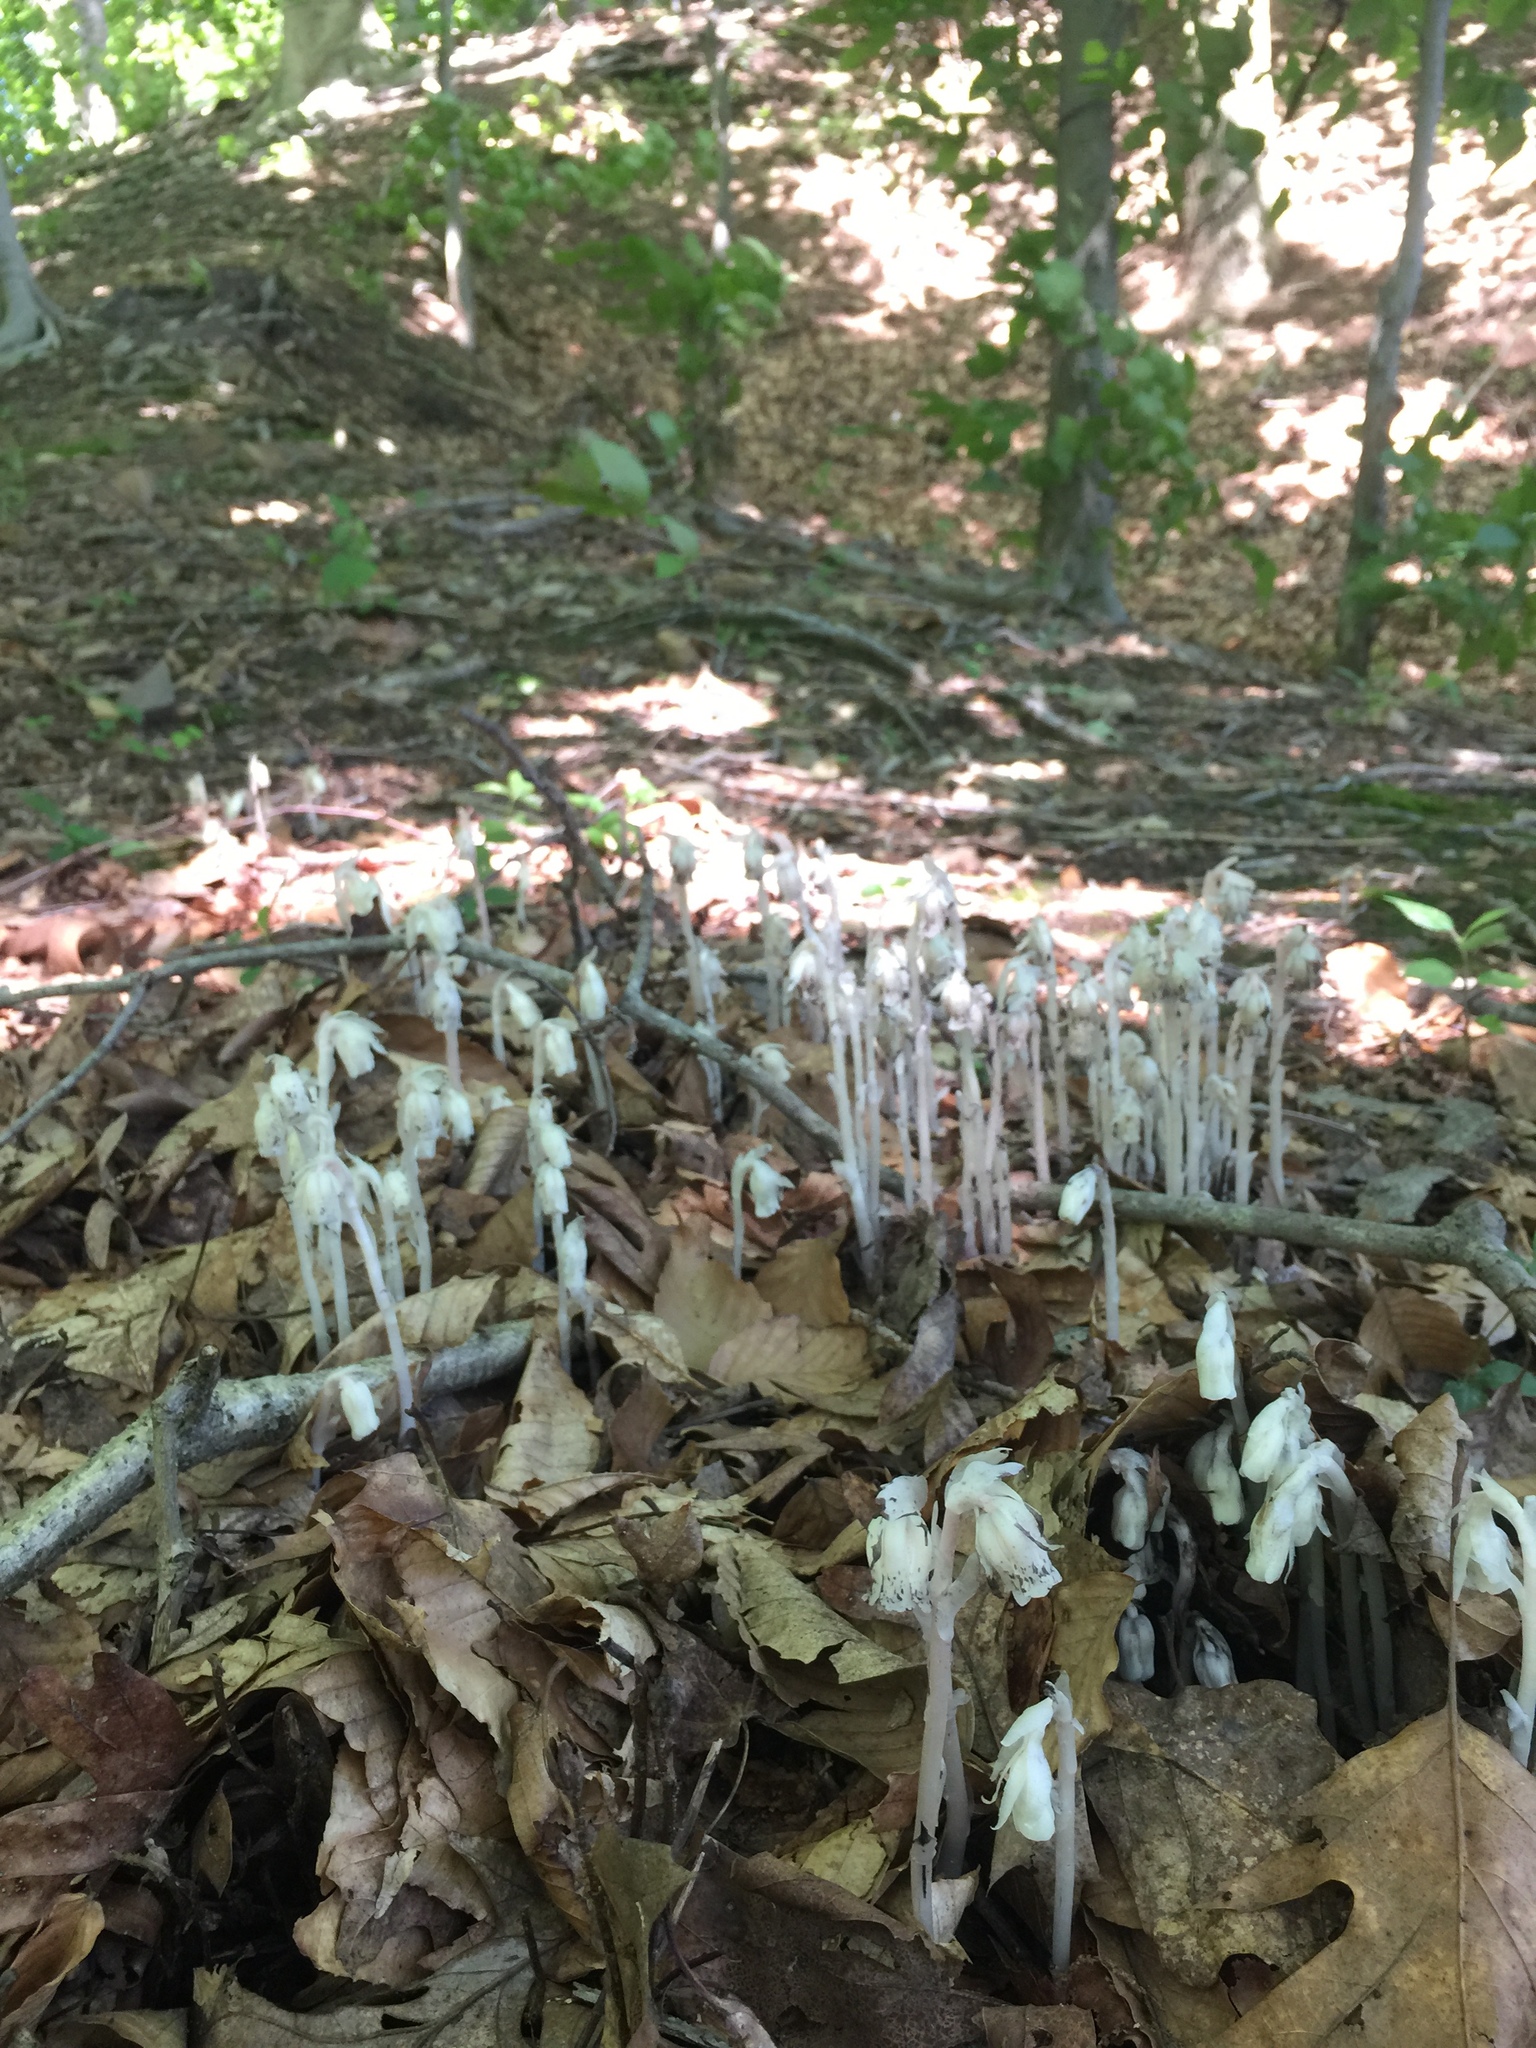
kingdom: Plantae
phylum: Tracheophyta
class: Magnoliopsida
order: Ericales
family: Ericaceae
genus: Monotropa
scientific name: Monotropa uniflora
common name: Convulsion root
